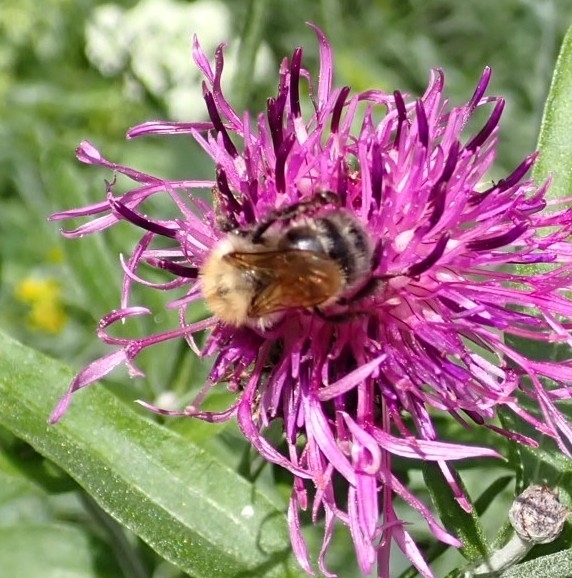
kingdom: Animalia
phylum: Arthropoda
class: Insecta
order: Hymenoptera
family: Apidae
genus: Bombus
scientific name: Bombus schrencki
